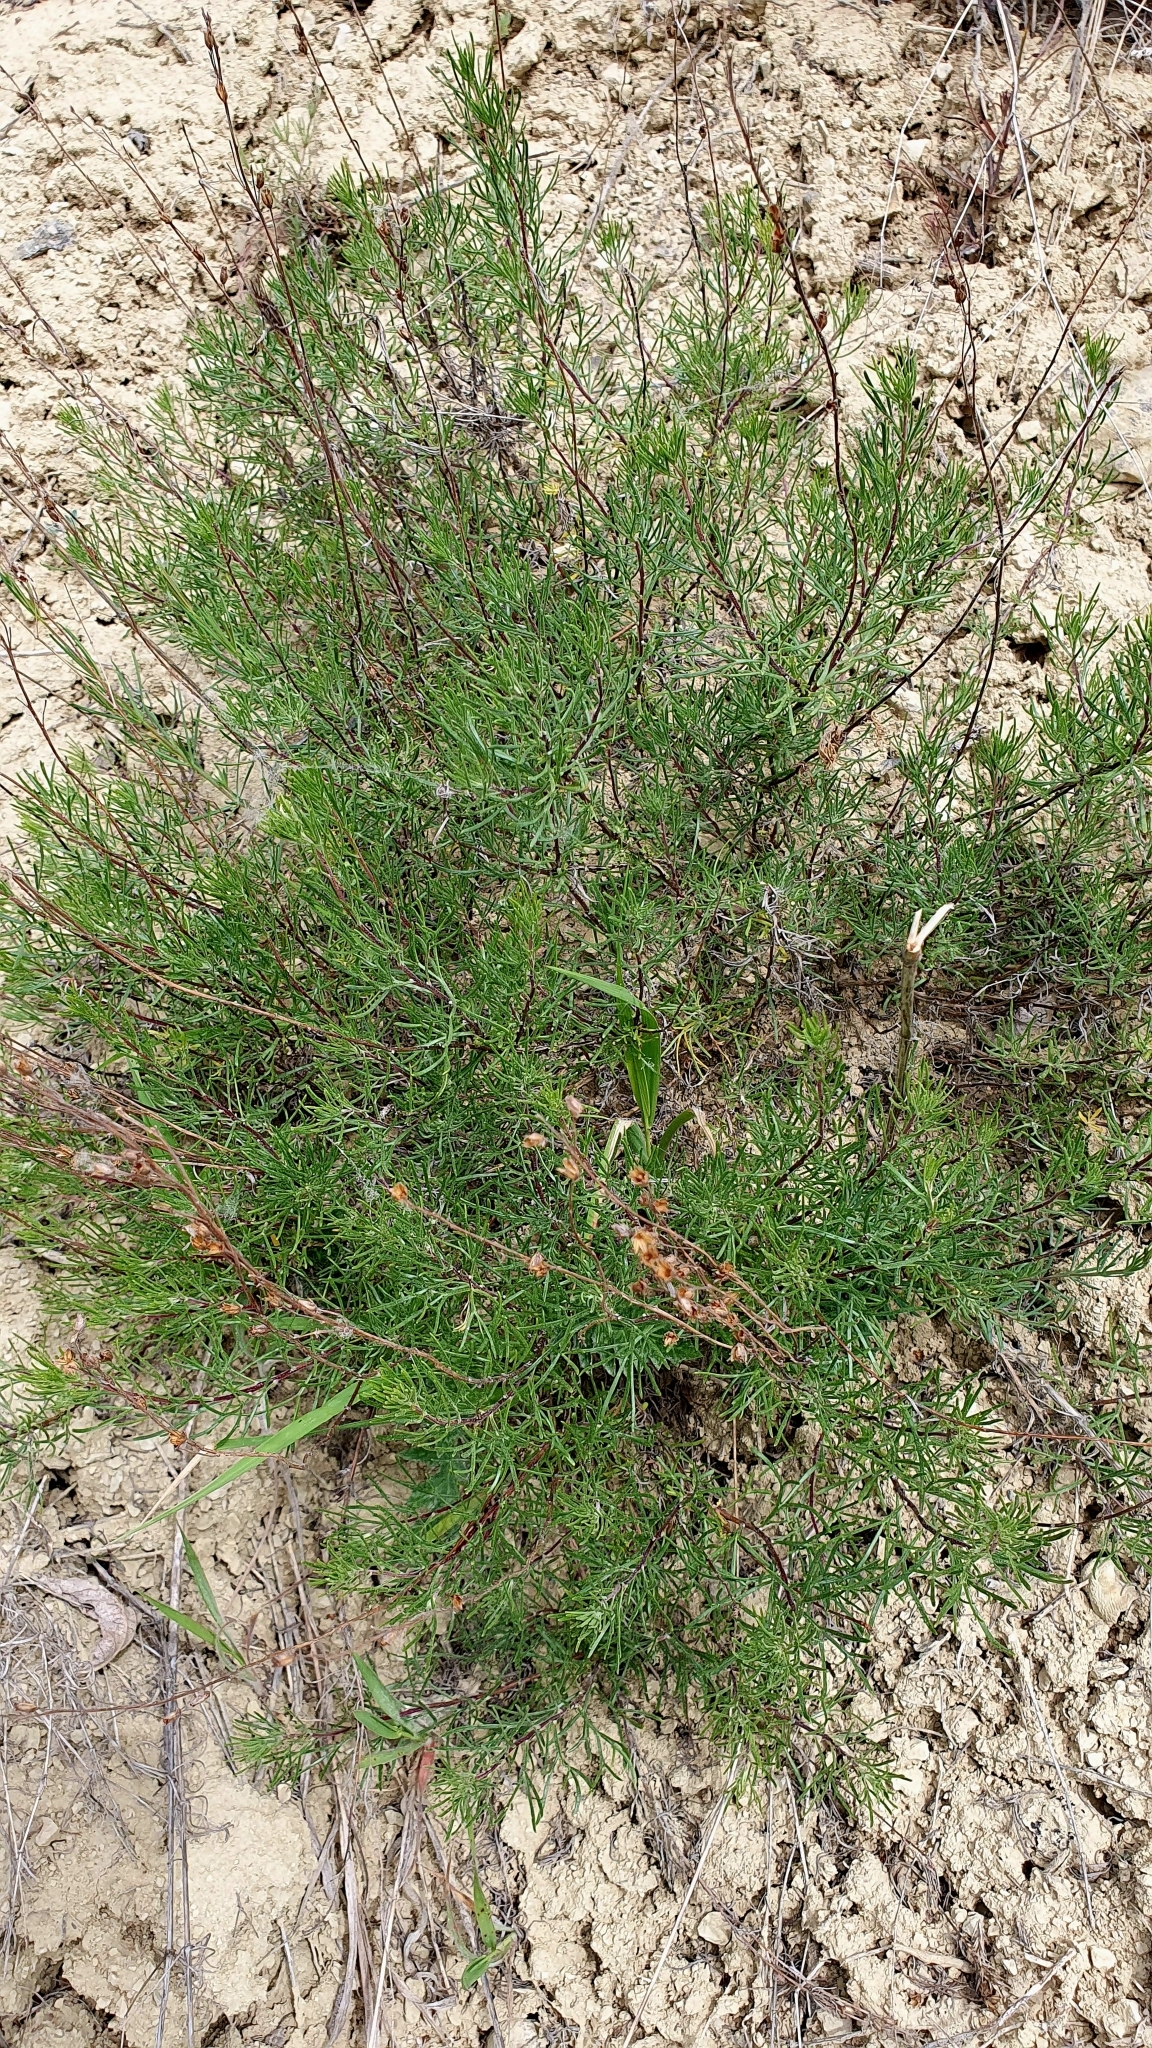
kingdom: Plantae
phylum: Tracheophyta
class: Magnoliopsida
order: Asterales
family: Asteraceae
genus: Artemisia
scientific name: Artemisia salsoloides
